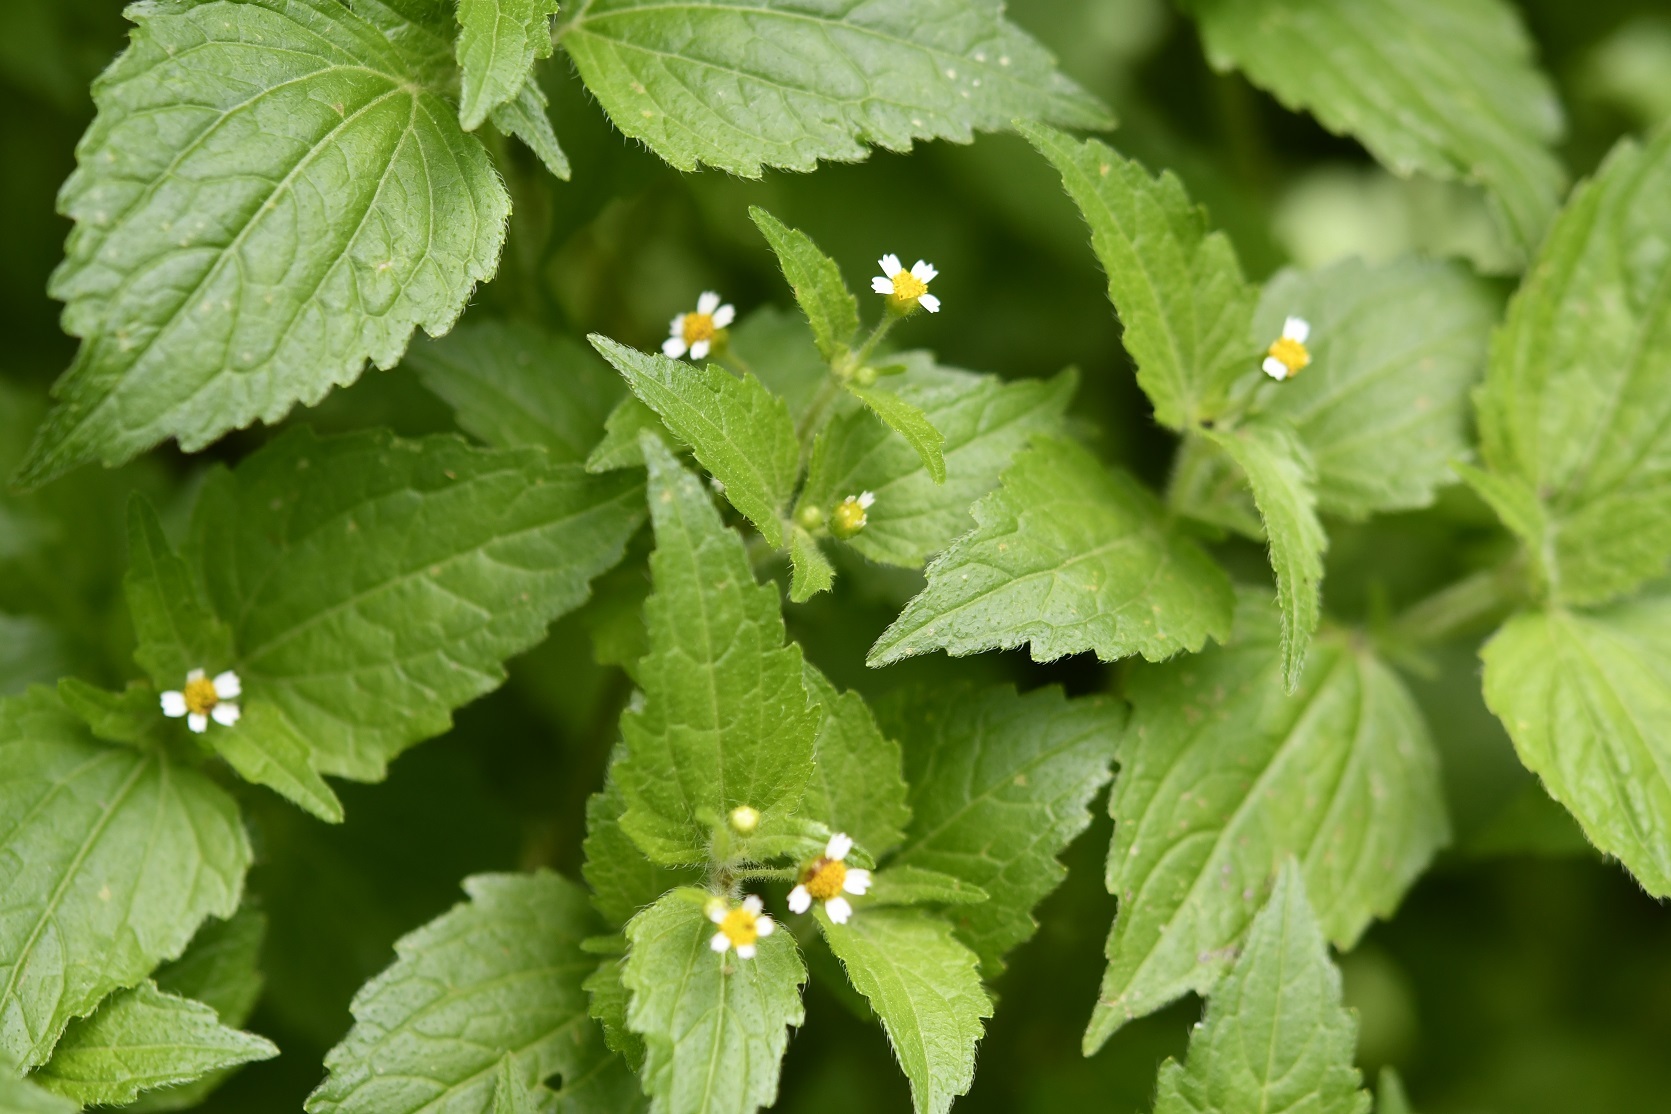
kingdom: Plantae
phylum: Tracheophyta
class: Magnoliopsida
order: Asterales
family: Asteraceae
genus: Galinsoga
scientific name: Galinsoga quadriradiata
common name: Shaggy soldier
